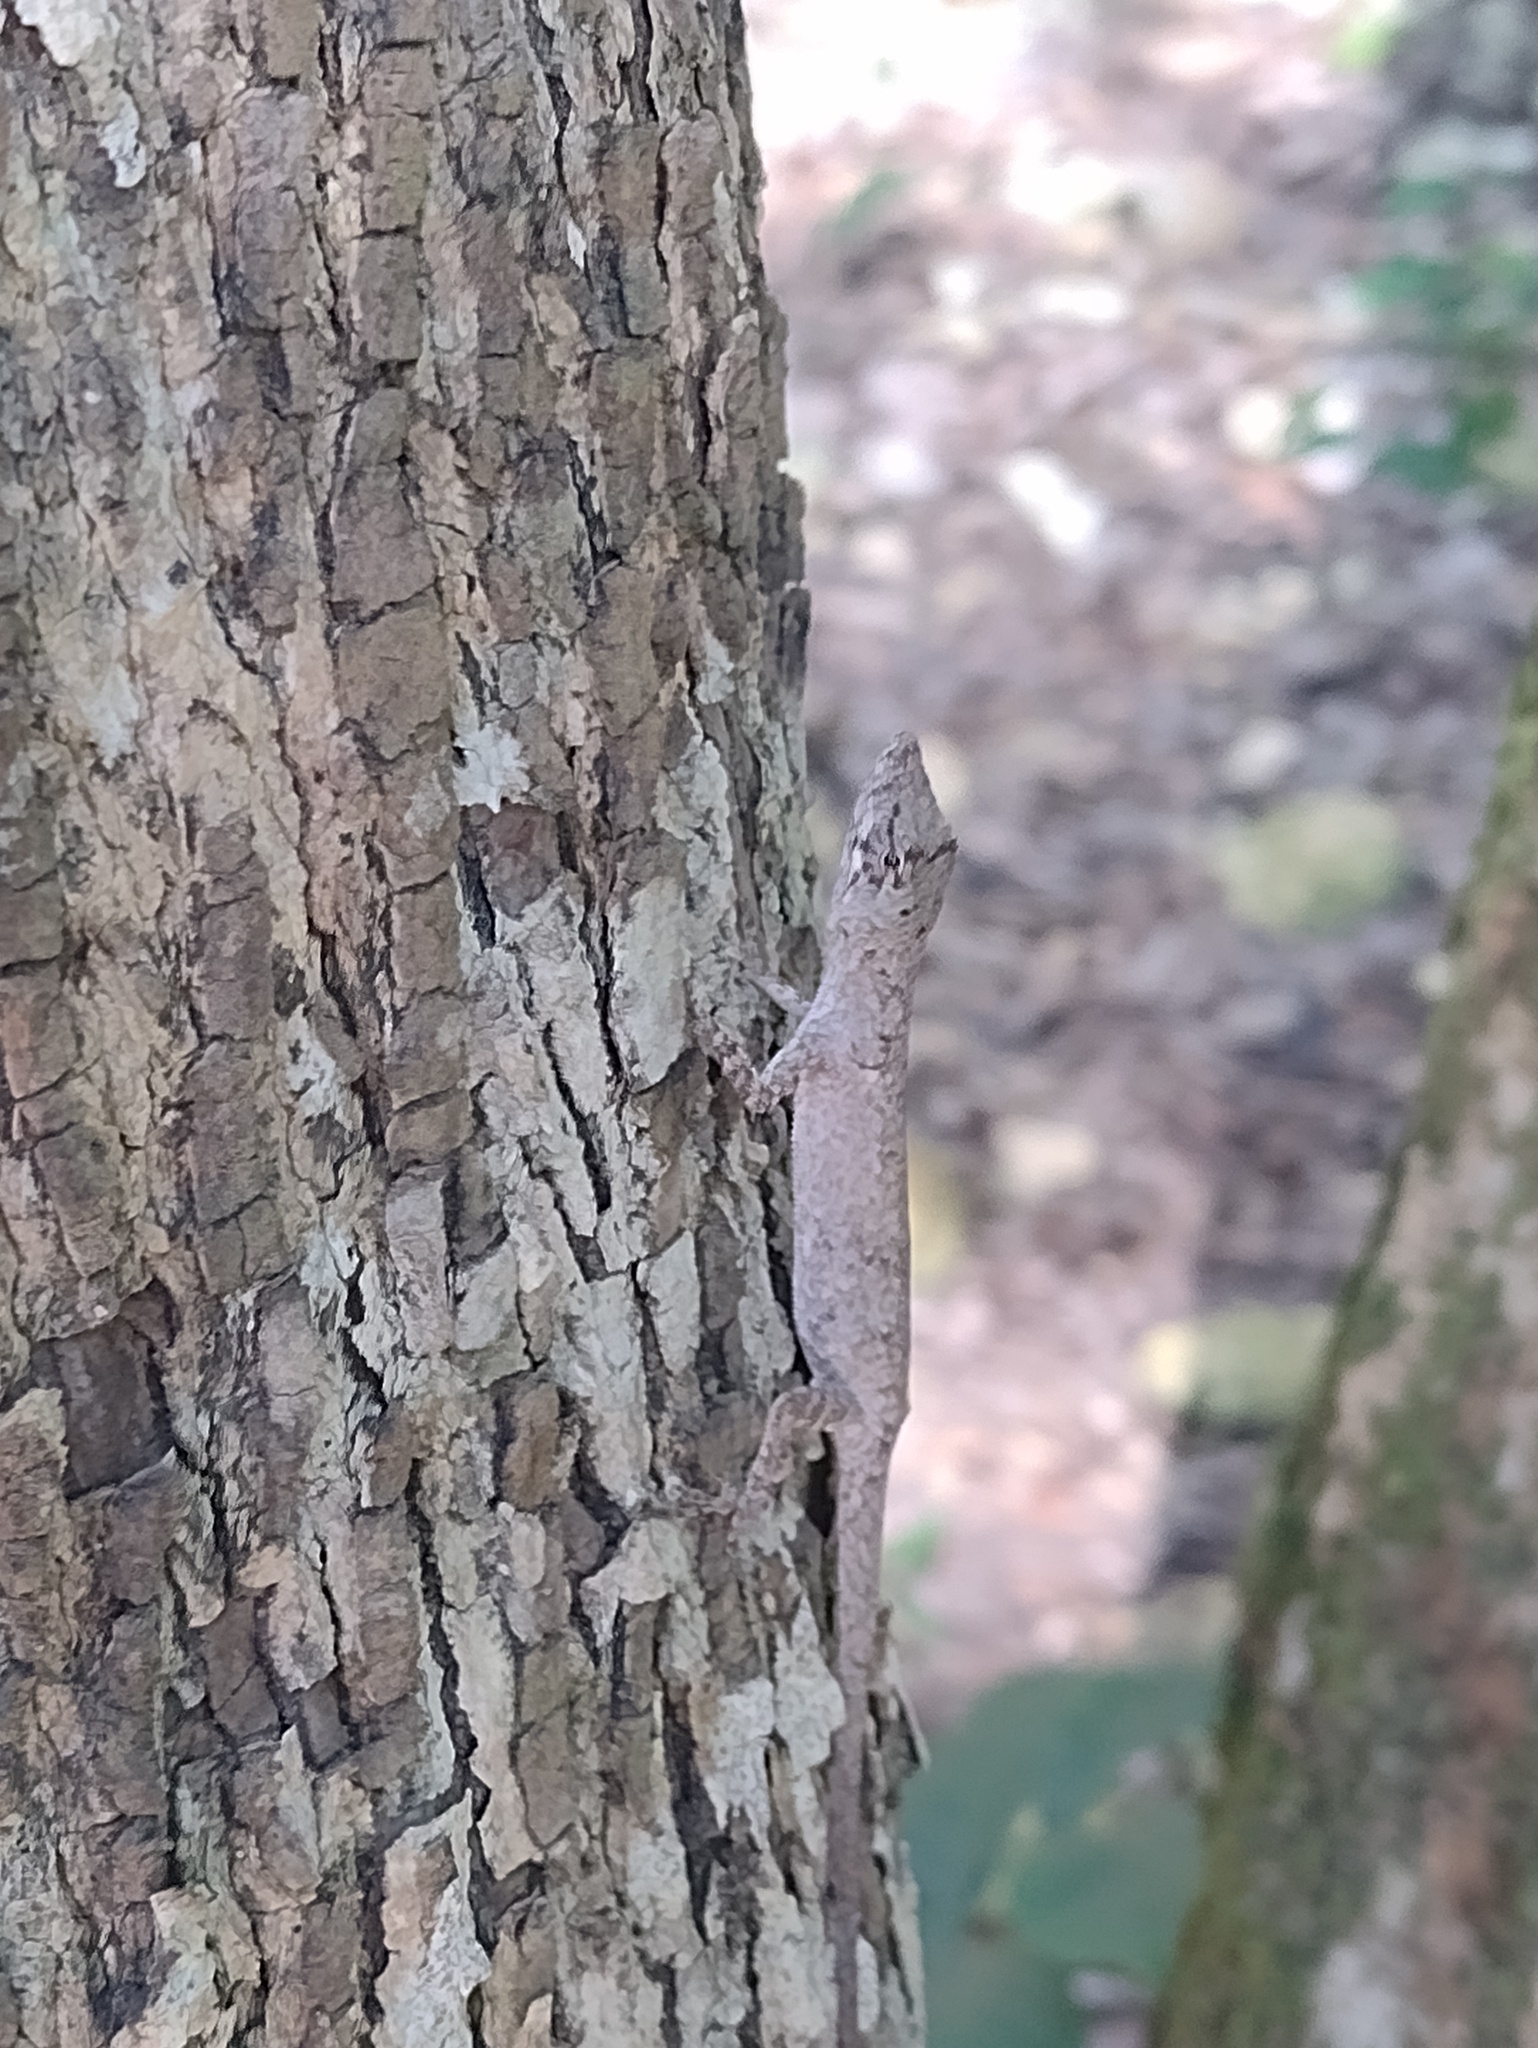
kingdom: Animalia
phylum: Chordata
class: Squamata
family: Dactyloidae
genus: Anolis
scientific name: Anolis ustus
